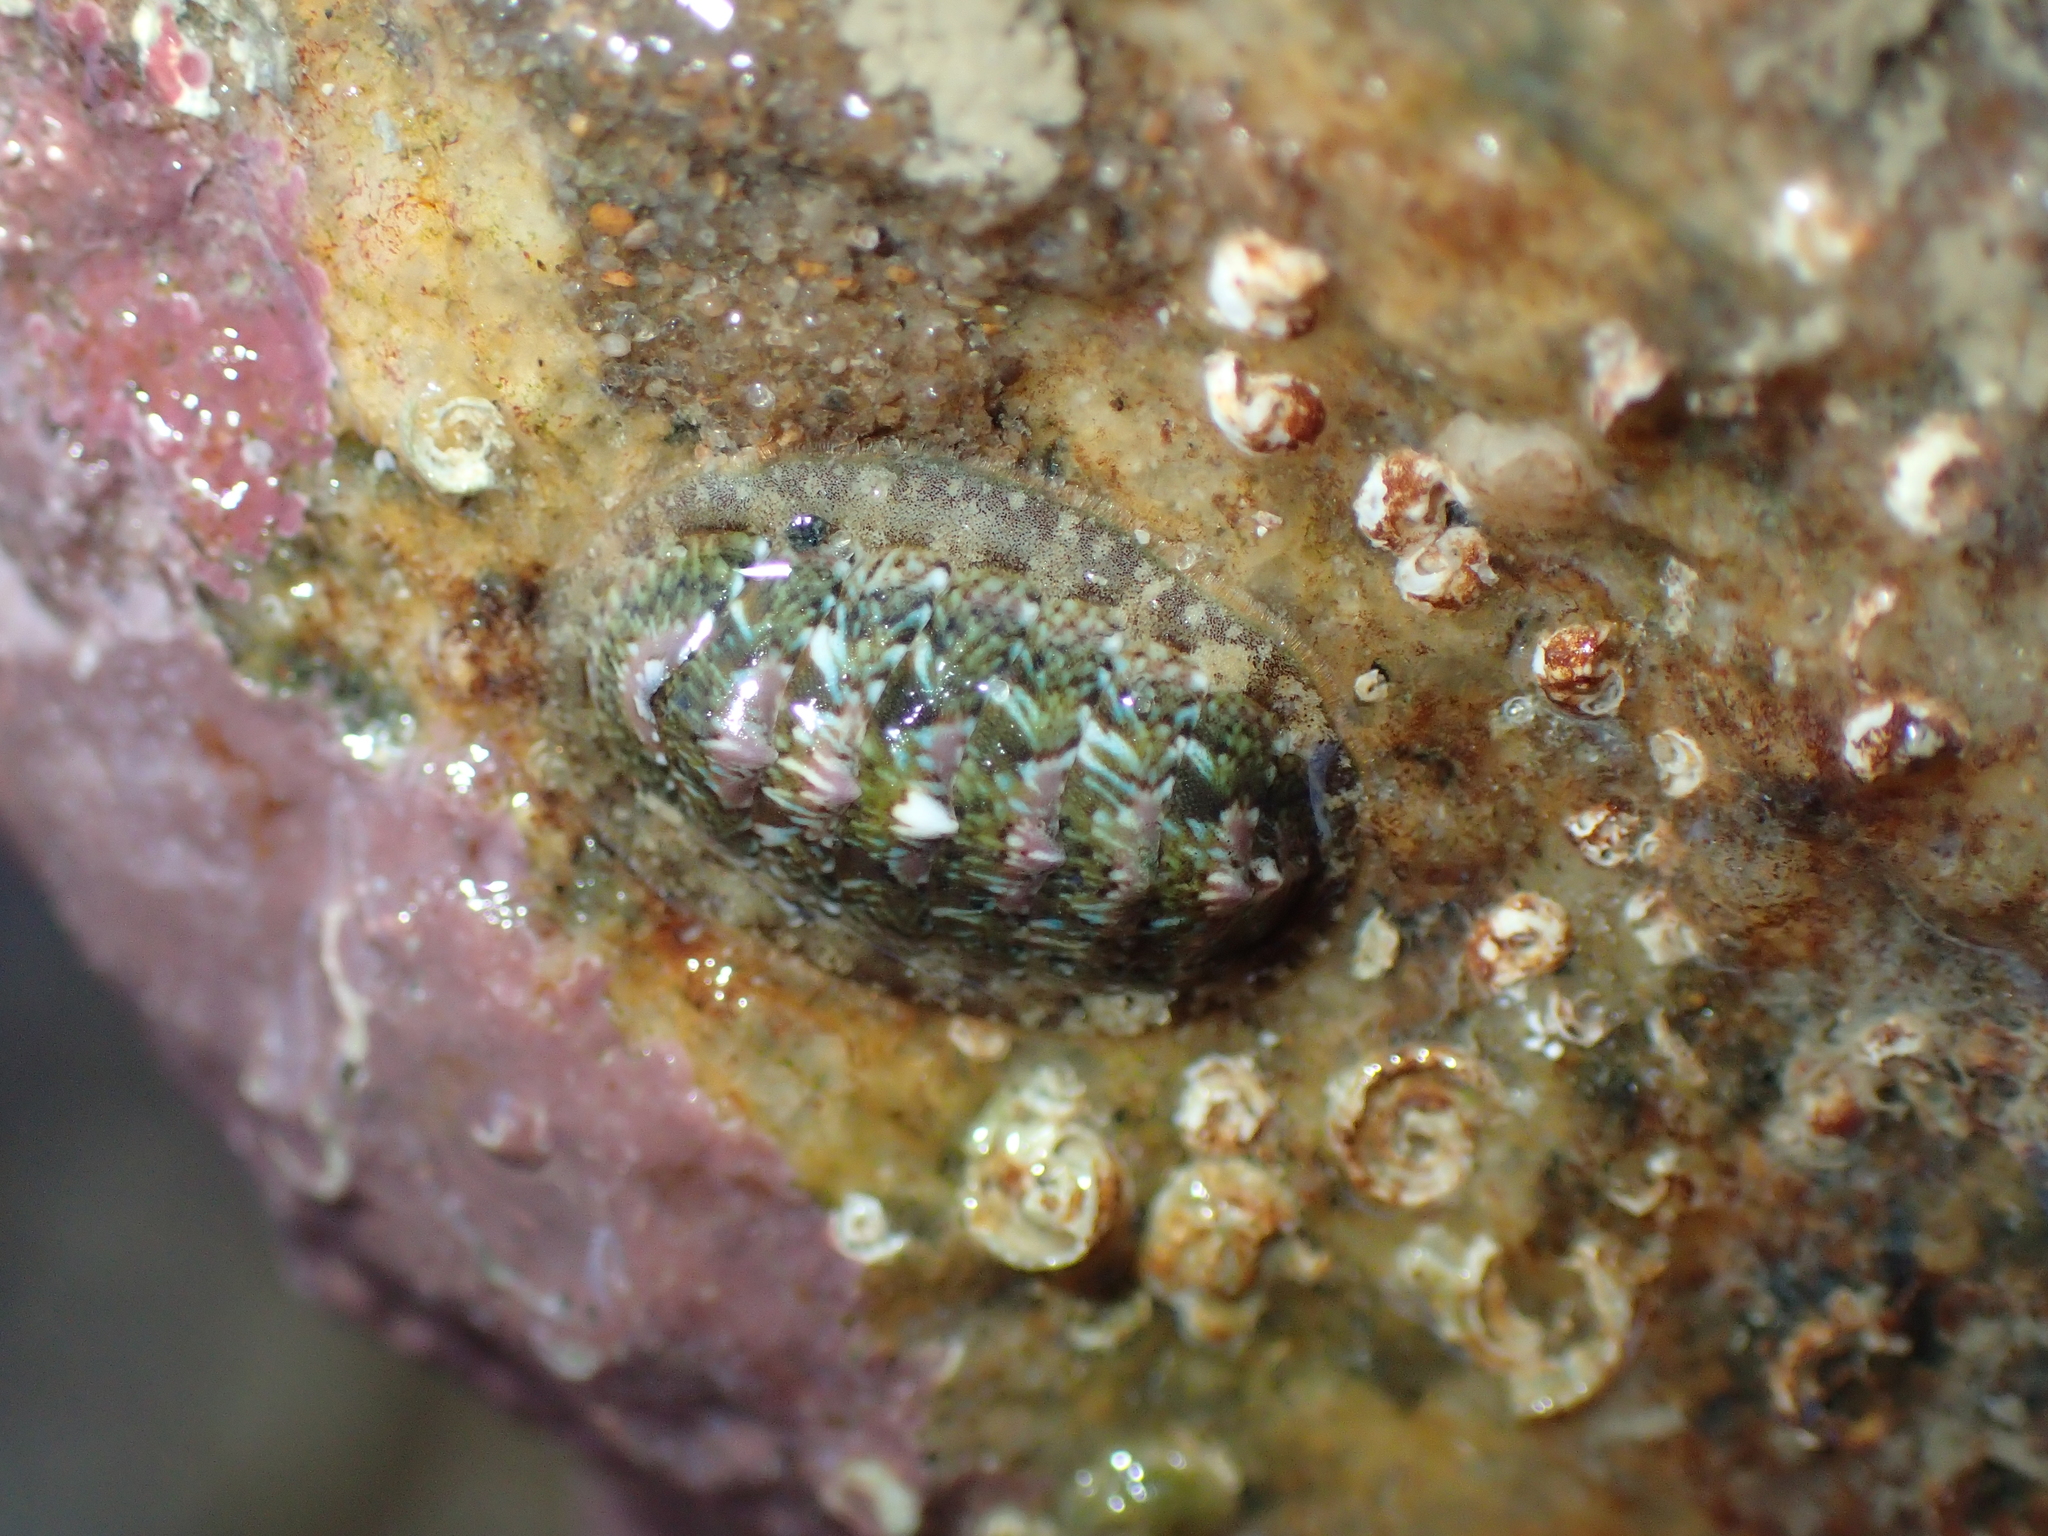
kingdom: Animalia
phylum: Mollusca
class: Polyplacophora
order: Chitonida
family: Tonicellidae
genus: Lepidochitona
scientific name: Lepidochitona cinerea
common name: Cinereous chiton
